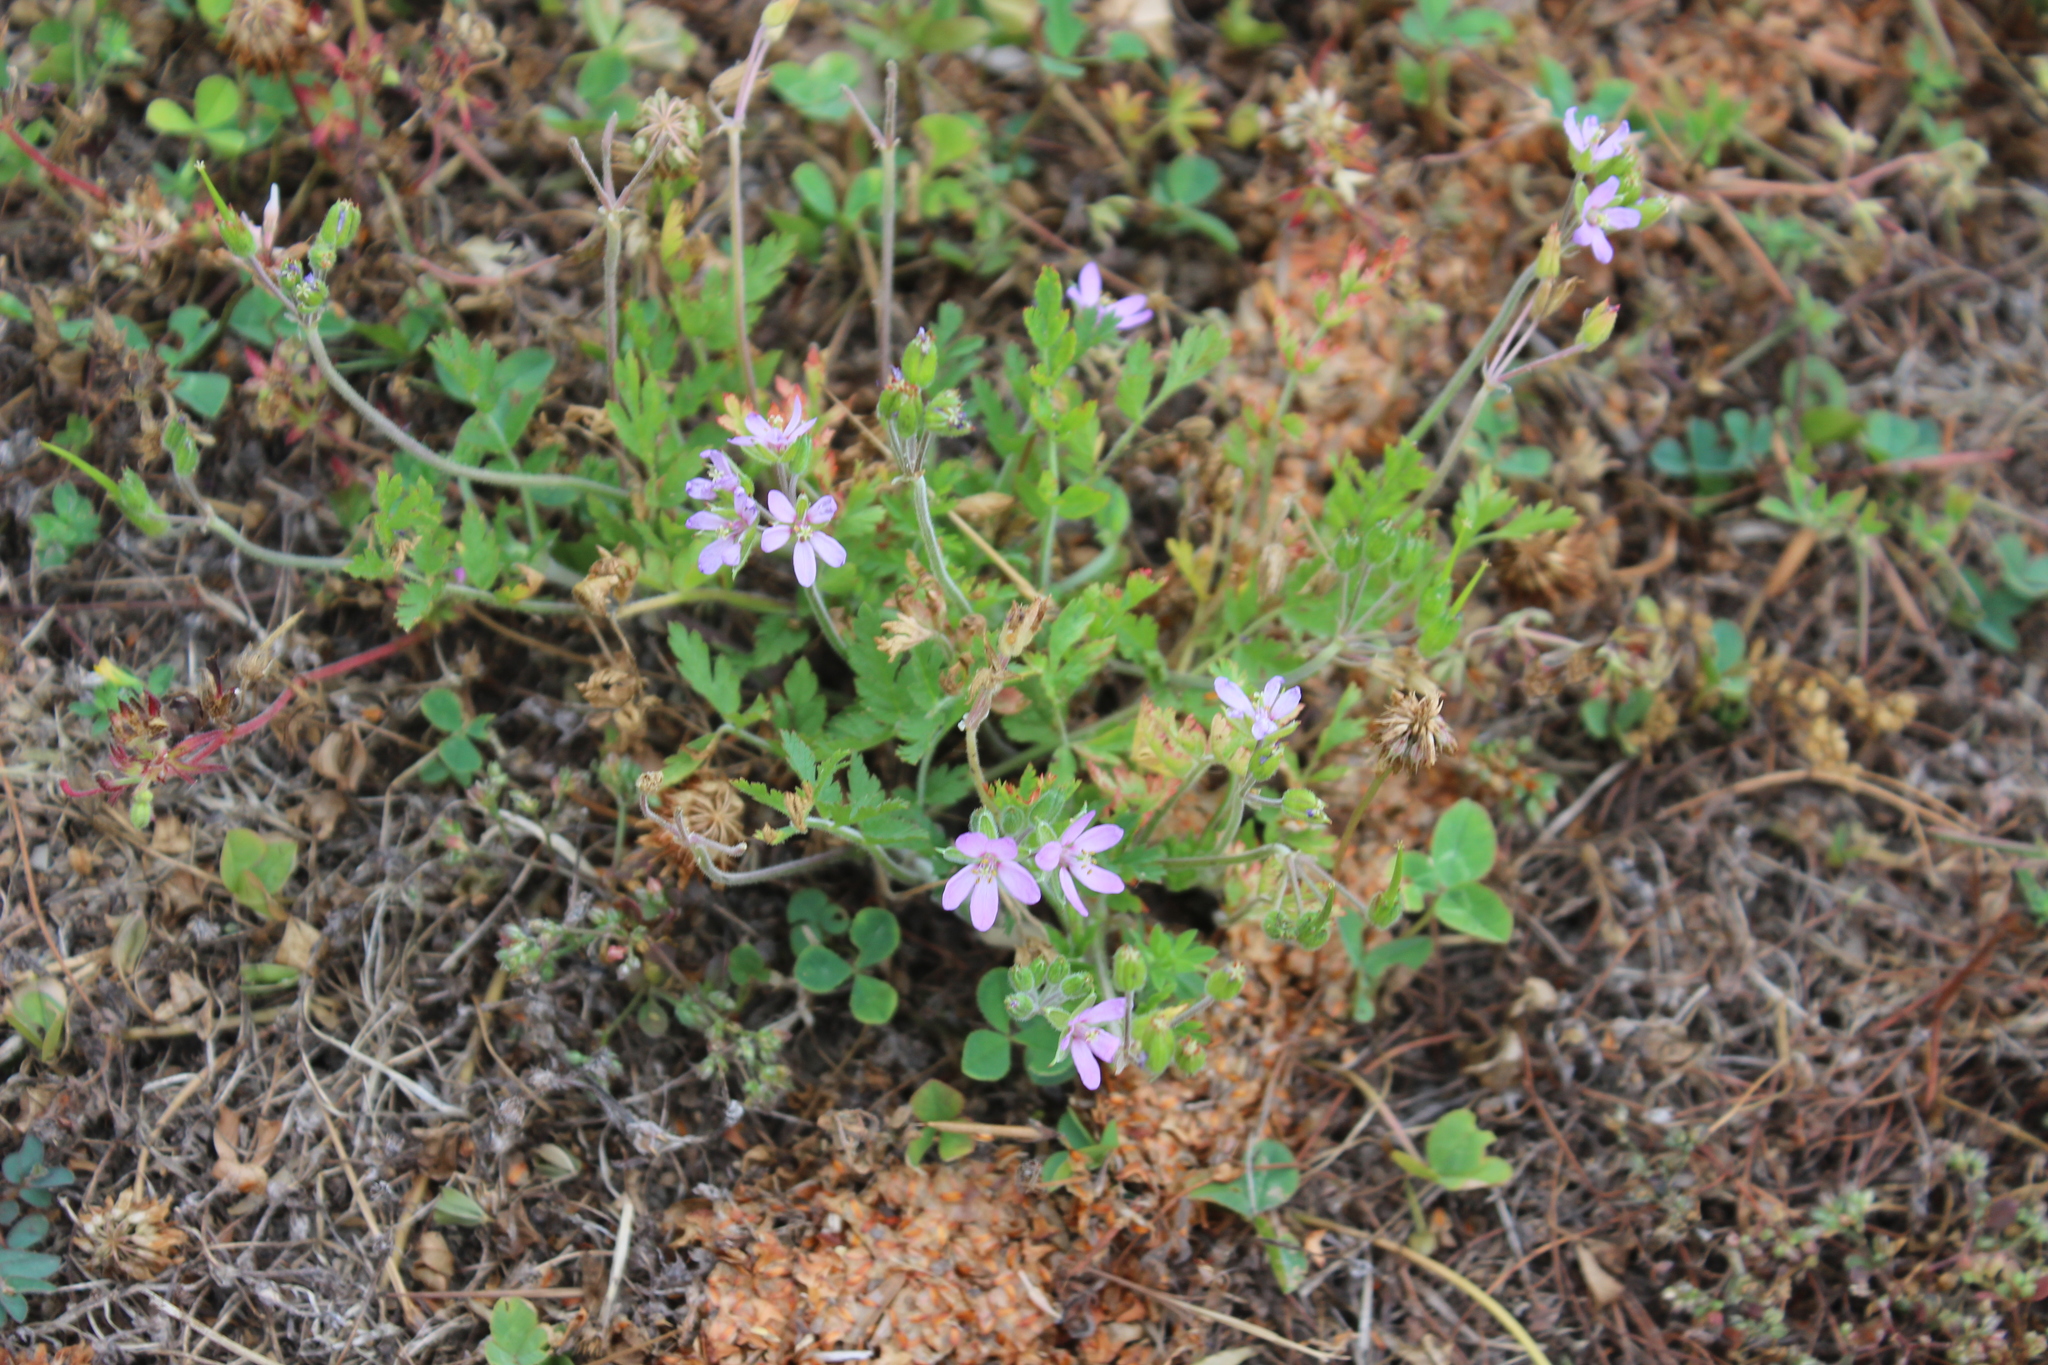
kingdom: Plantae
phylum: Tracheophyta
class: Magnoliopsida
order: Geraniales
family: Geraniaceae
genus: Erodium
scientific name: Erodium moschatum
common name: Musk stork's-bill
